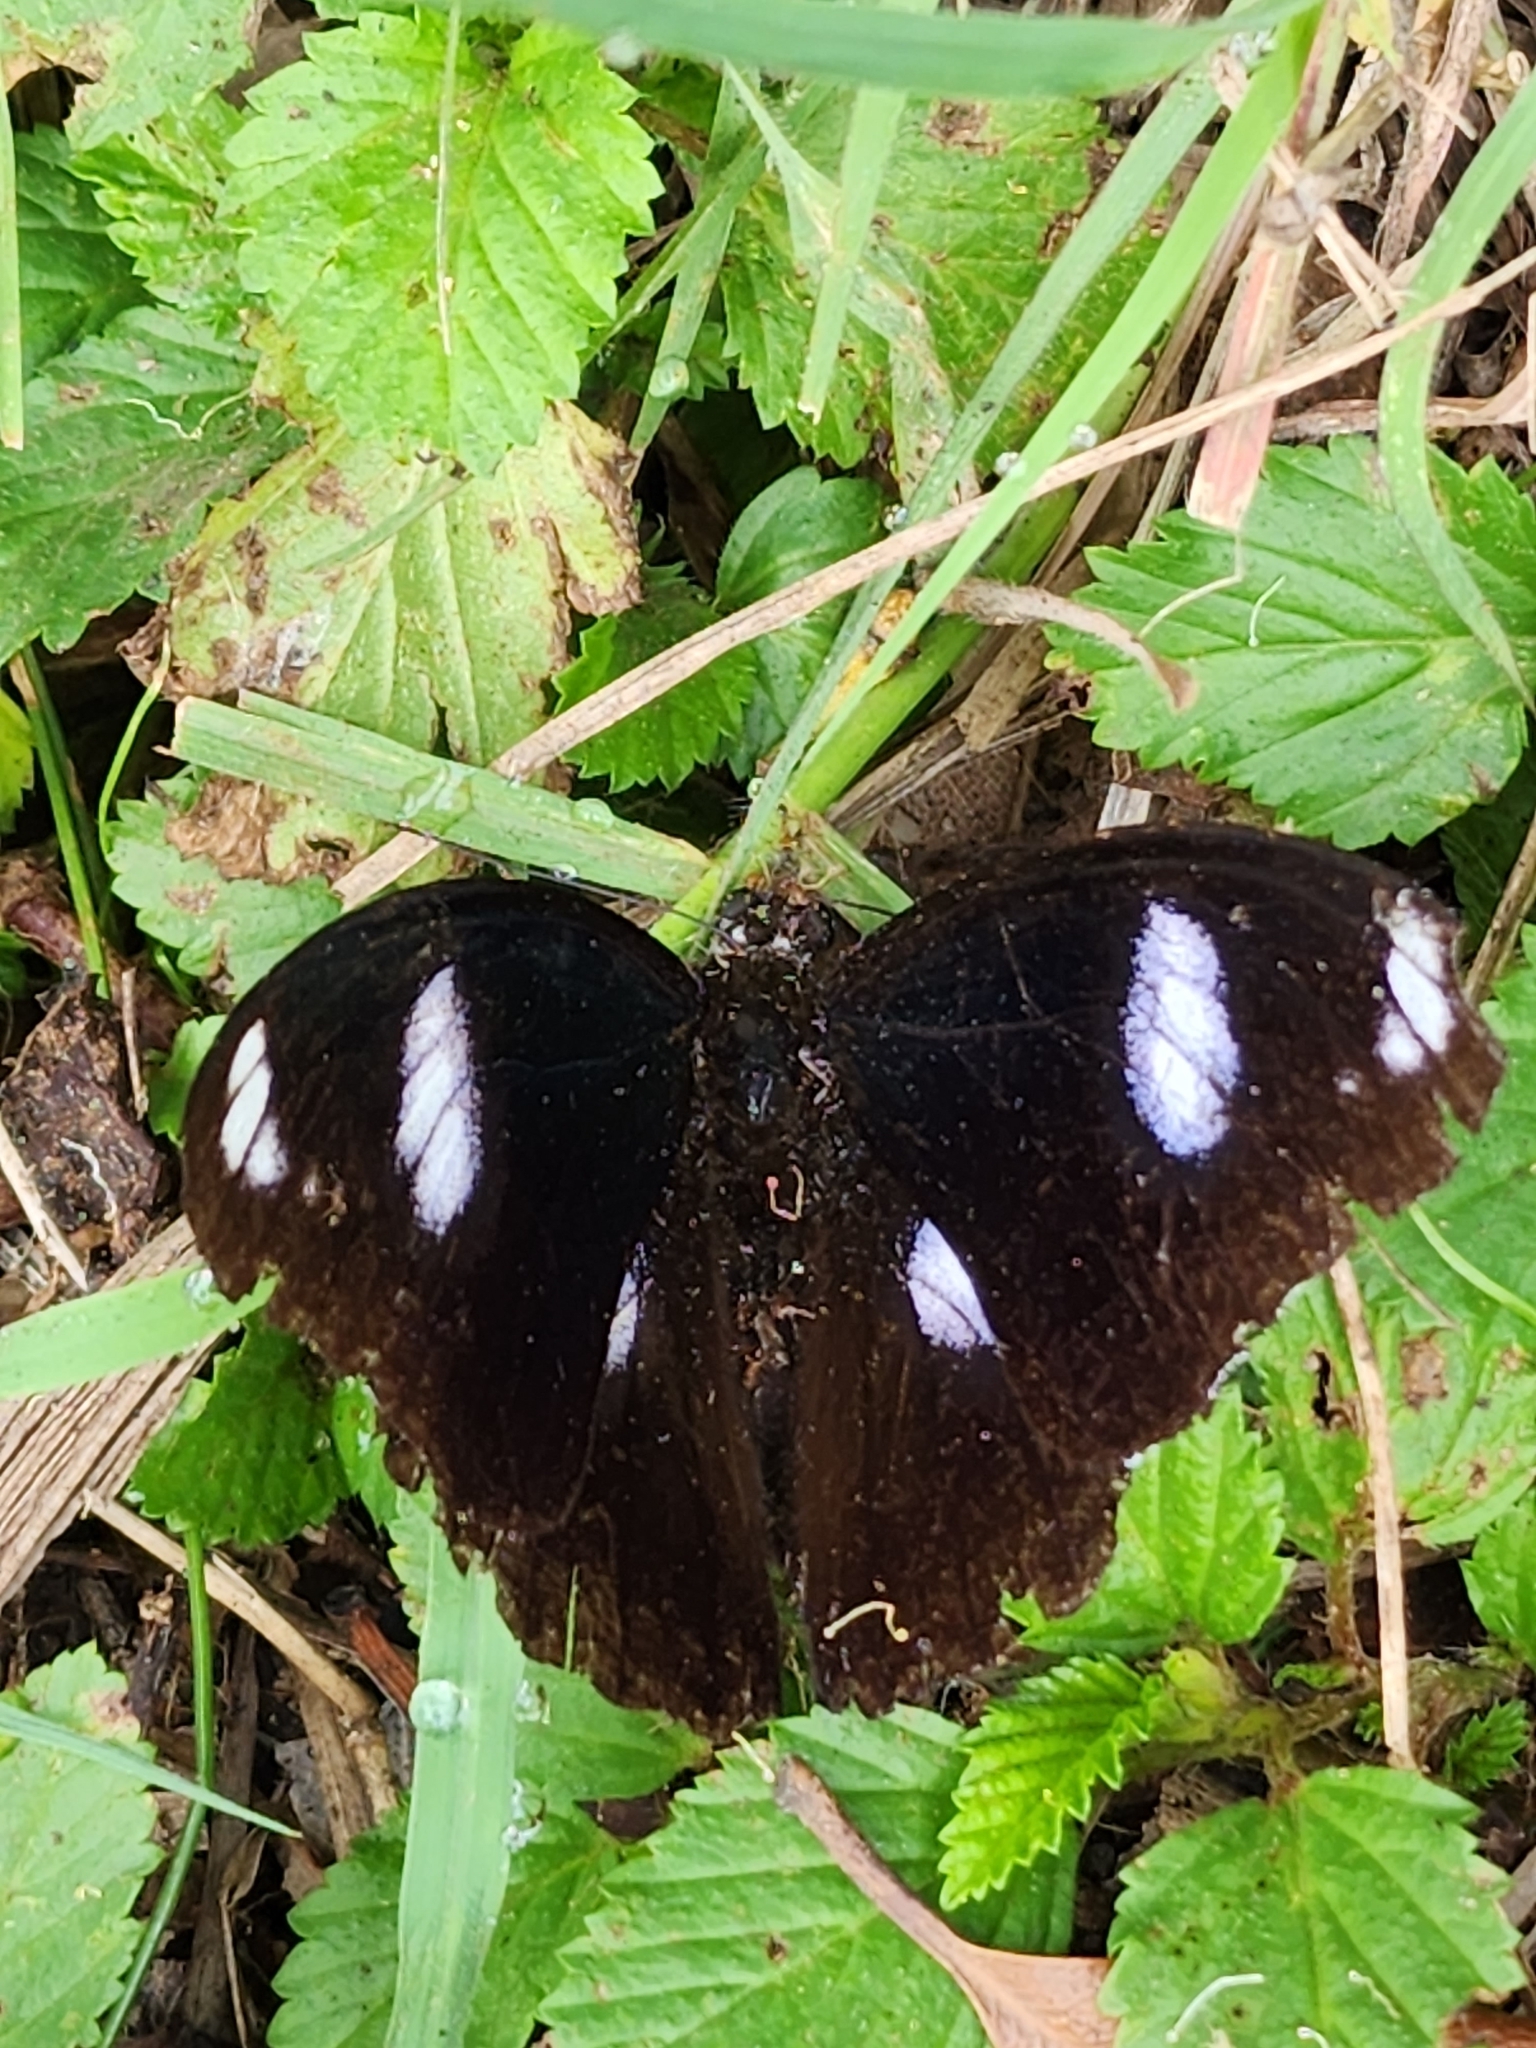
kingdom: Animalia
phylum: Arthropoda
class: Insecta
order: Lepidoptera
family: Nymphalidae
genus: Hypolimnas
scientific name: Hypolimnas bolina
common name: Great eggfly
